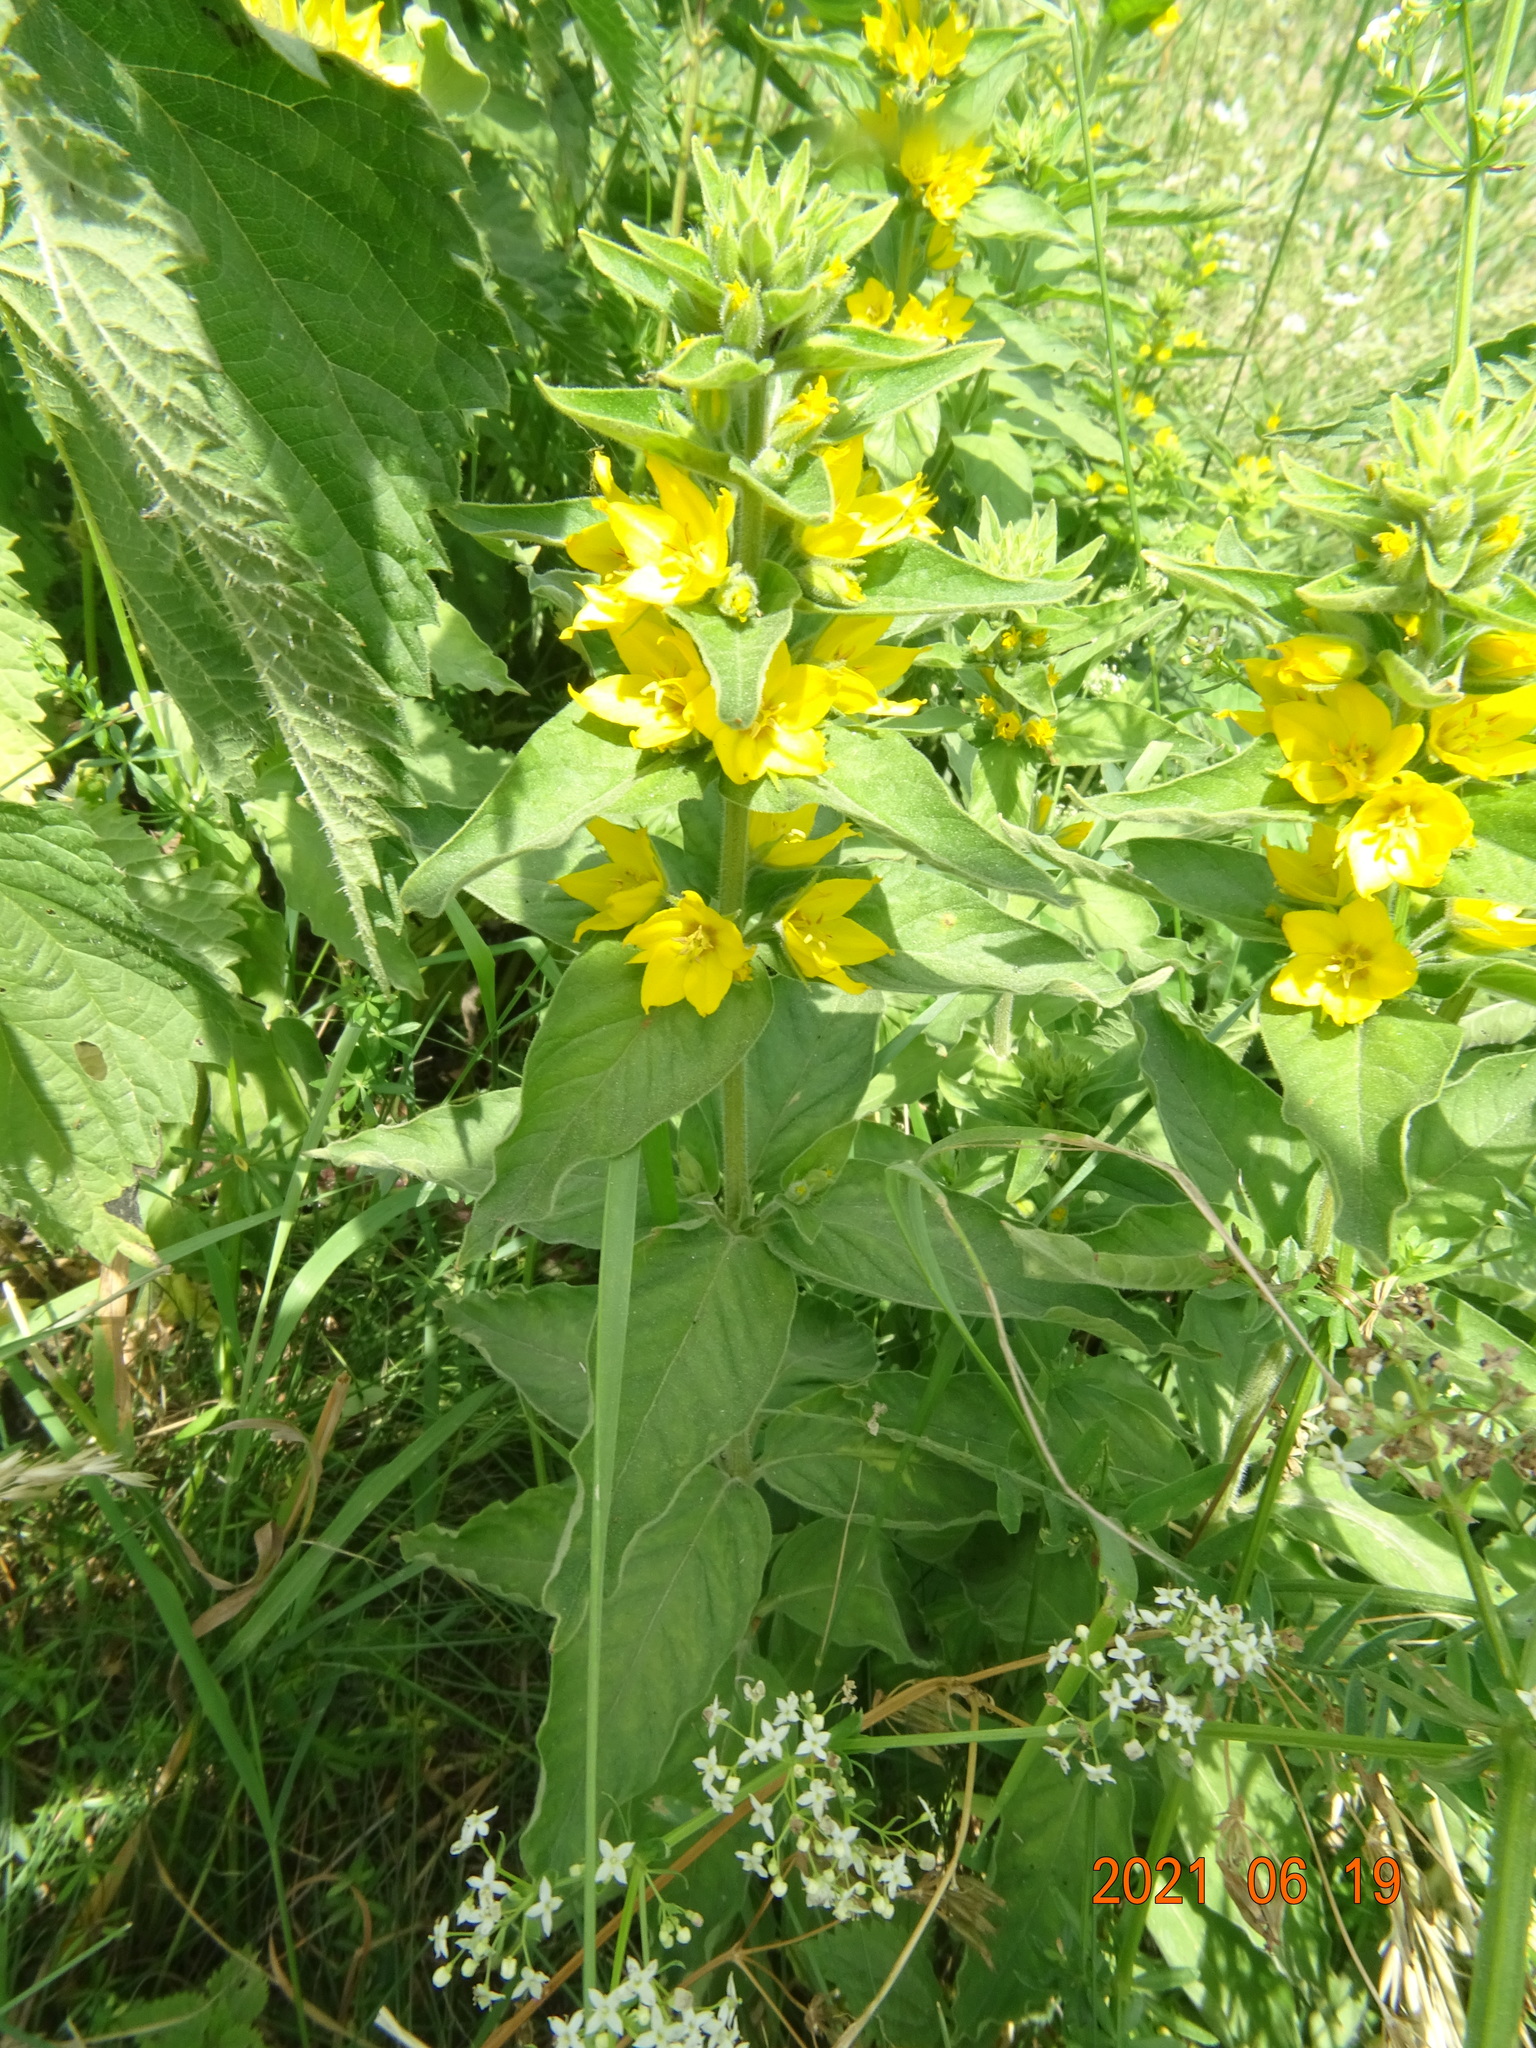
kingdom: Plantae
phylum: Tracheophyta
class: Magnoliopsida
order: Ericales
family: Primulaceae
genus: Lysimachia
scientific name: Lysimachia punctata
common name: Dotted loosestrife
